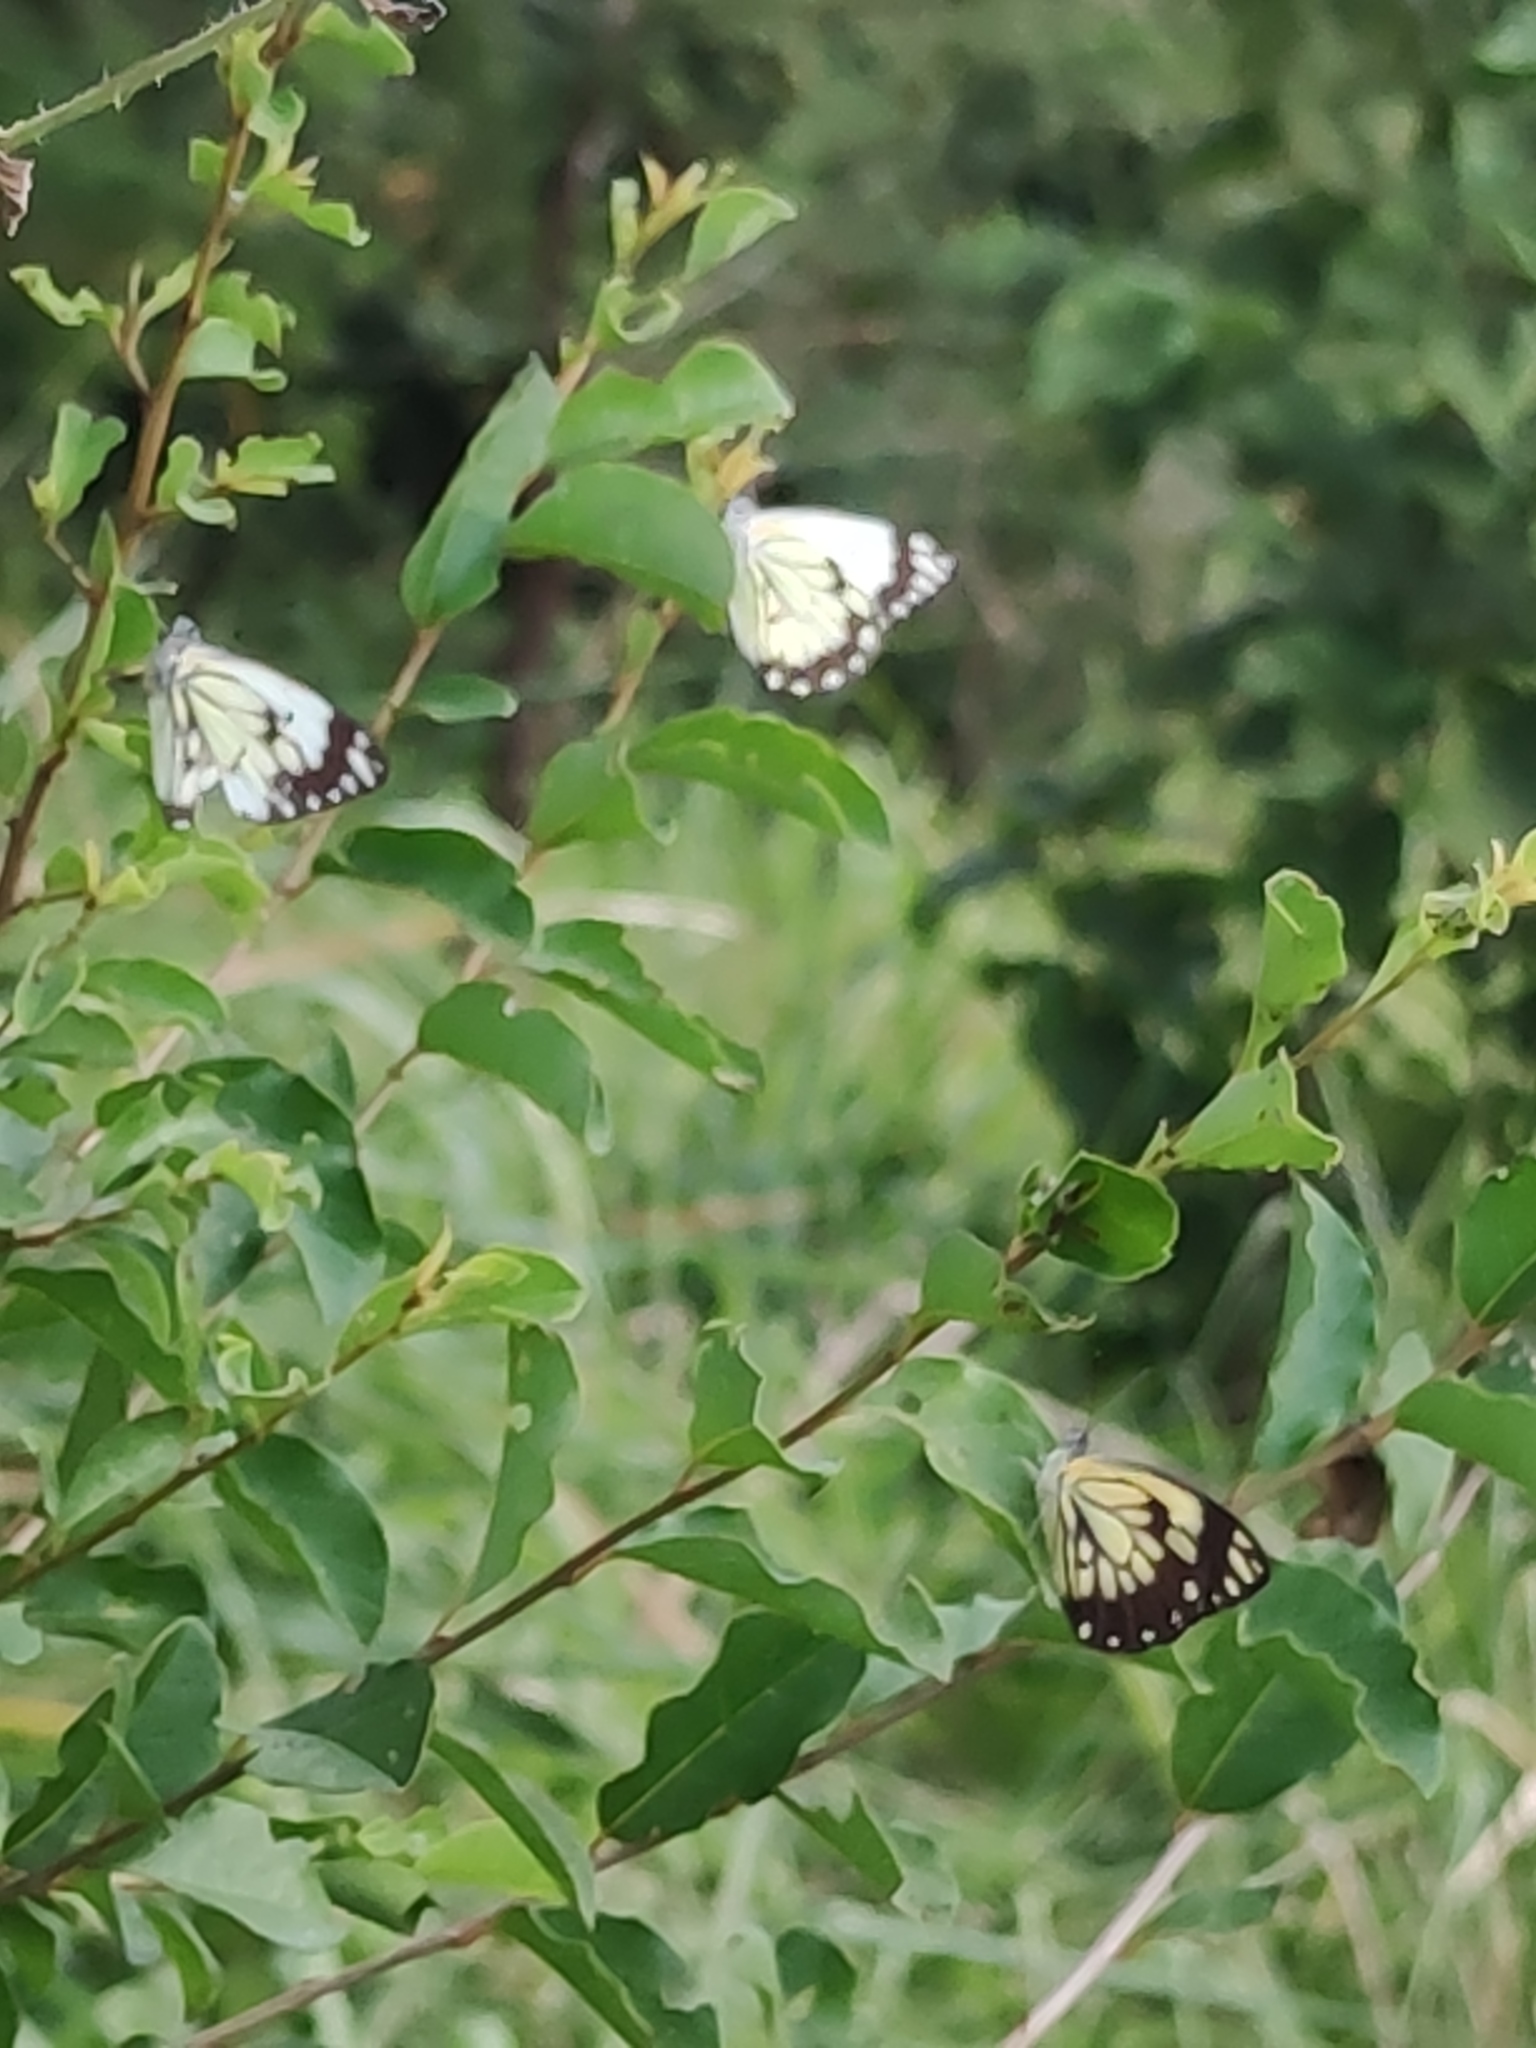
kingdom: Animalia
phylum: Arthropoda
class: Insecta
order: Lepidoptera
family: Pieridae
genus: Belenois
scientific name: Belenois creona
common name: African caper white
